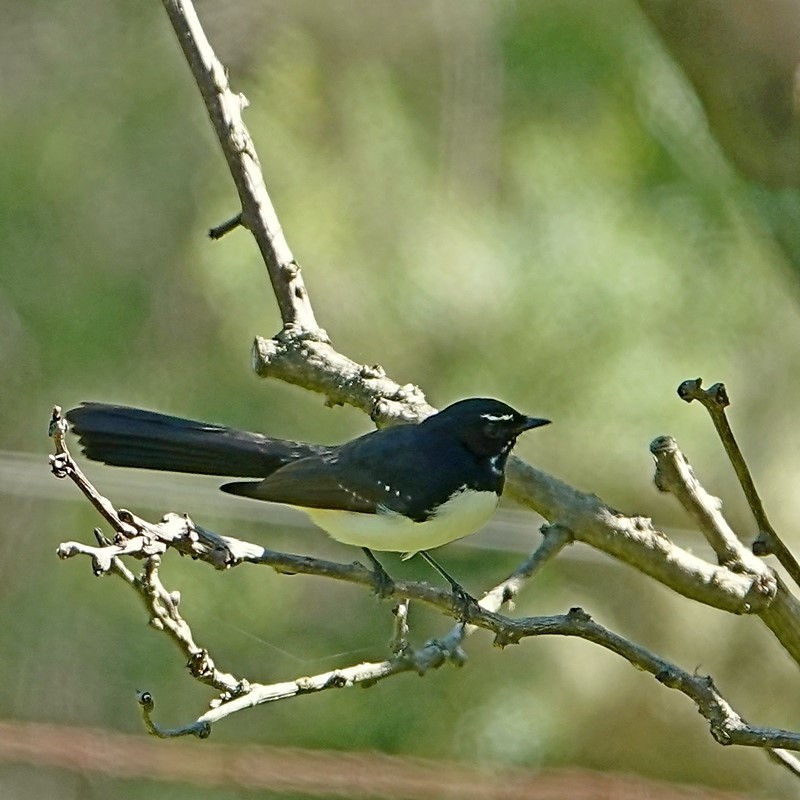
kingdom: Animalia
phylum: Chordata
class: Aves
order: Passeriformes
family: Rhipiduridae
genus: Rhipidura
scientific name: Rhipidura leucophrys
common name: Willie wagtail
